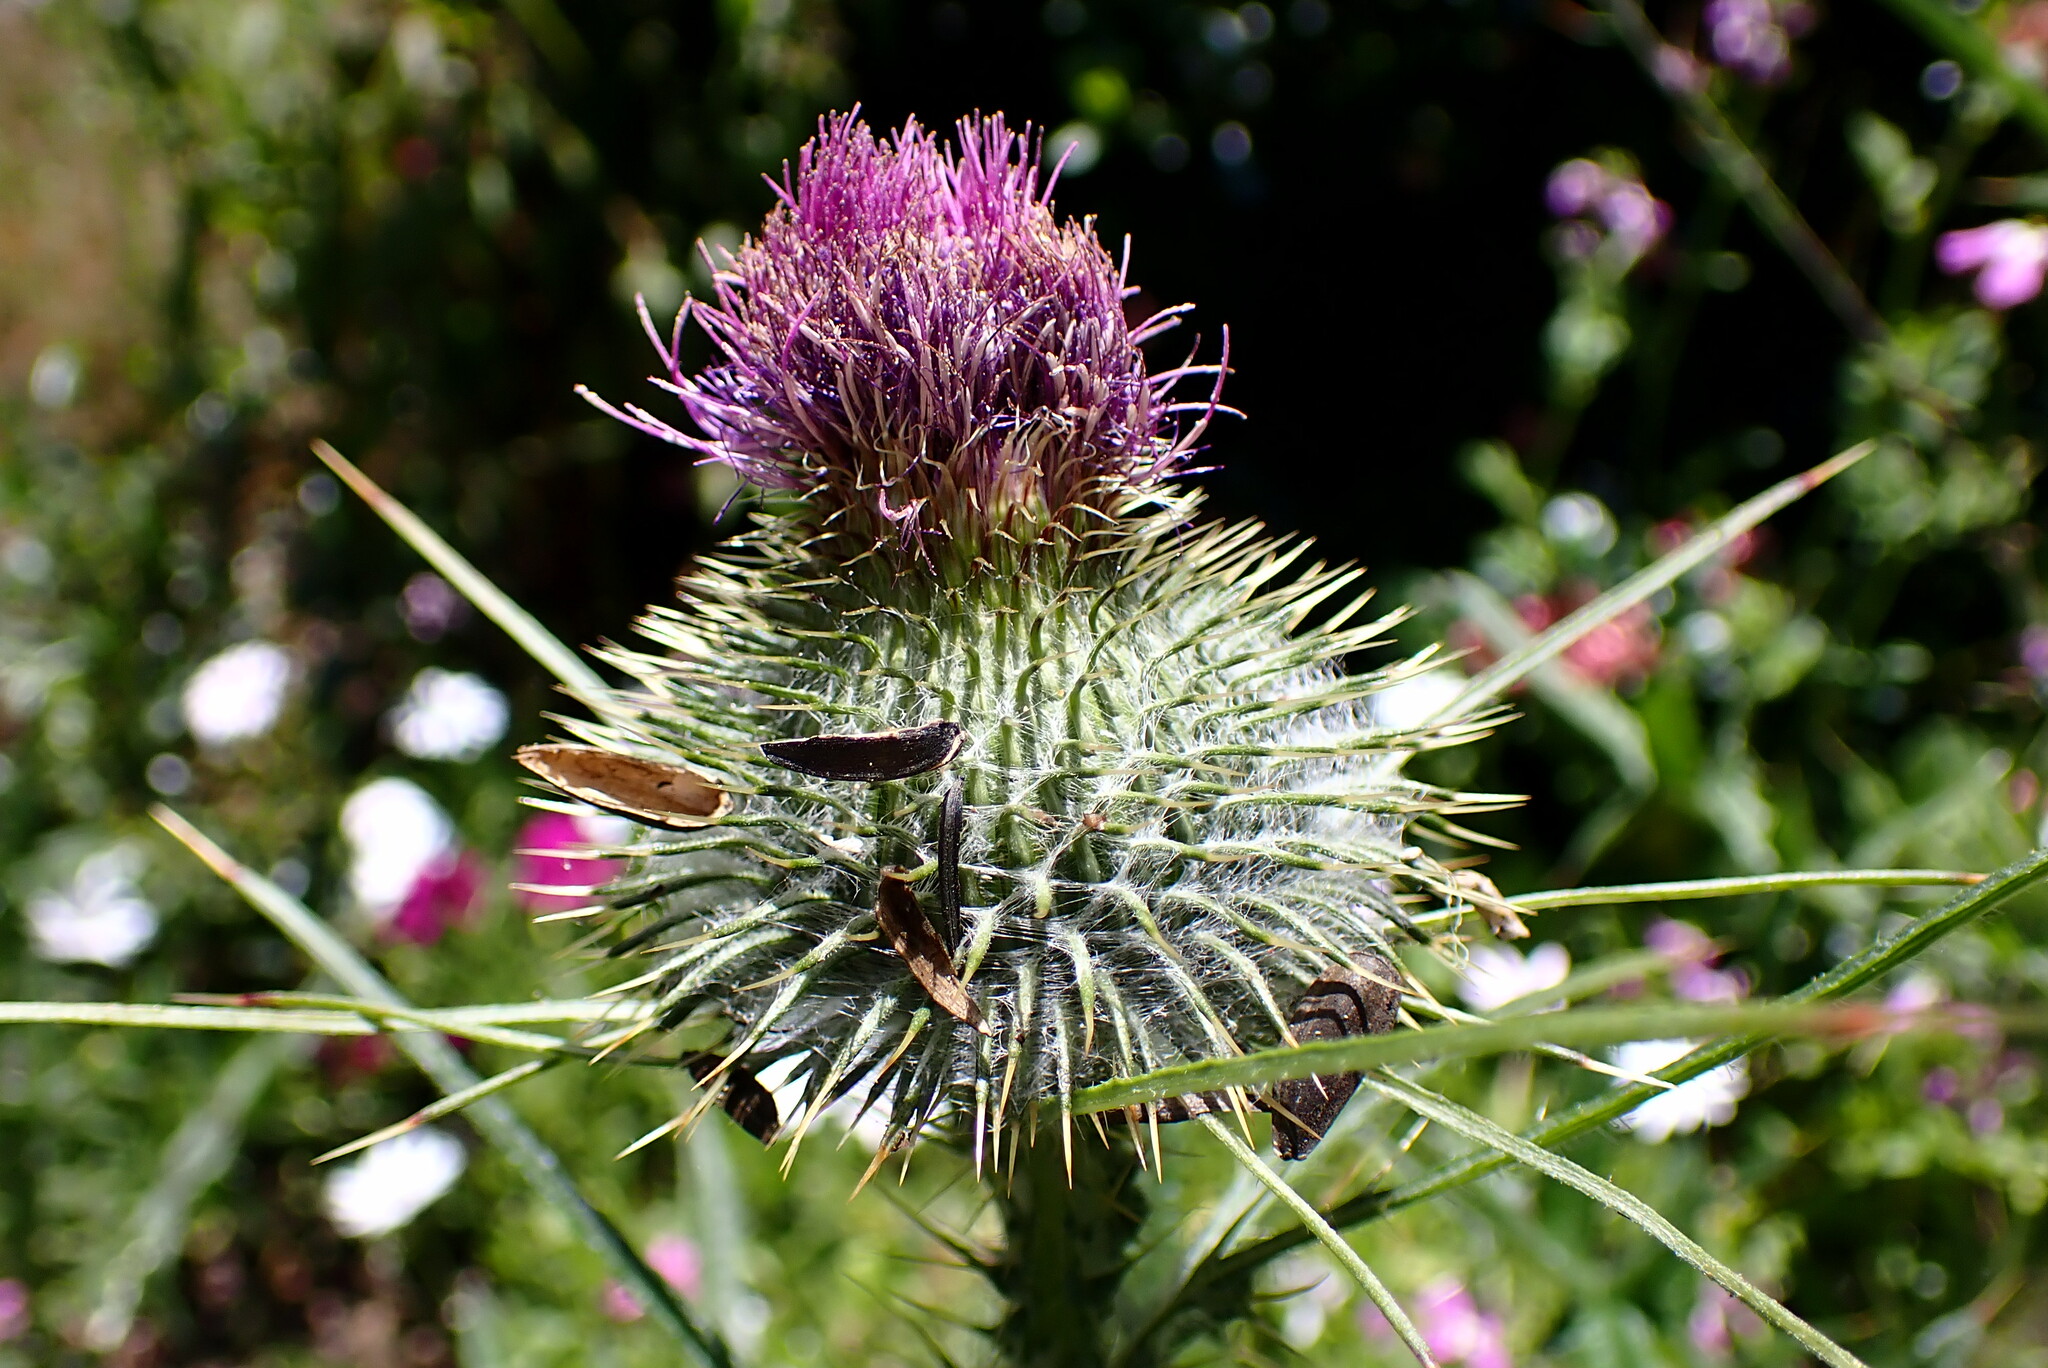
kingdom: Plantae
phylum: Tracheophyta
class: Magnoliopsida
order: Asterales
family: Asteraceae
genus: Cirsium
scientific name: Cirsium vulgare
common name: Bull thistle
